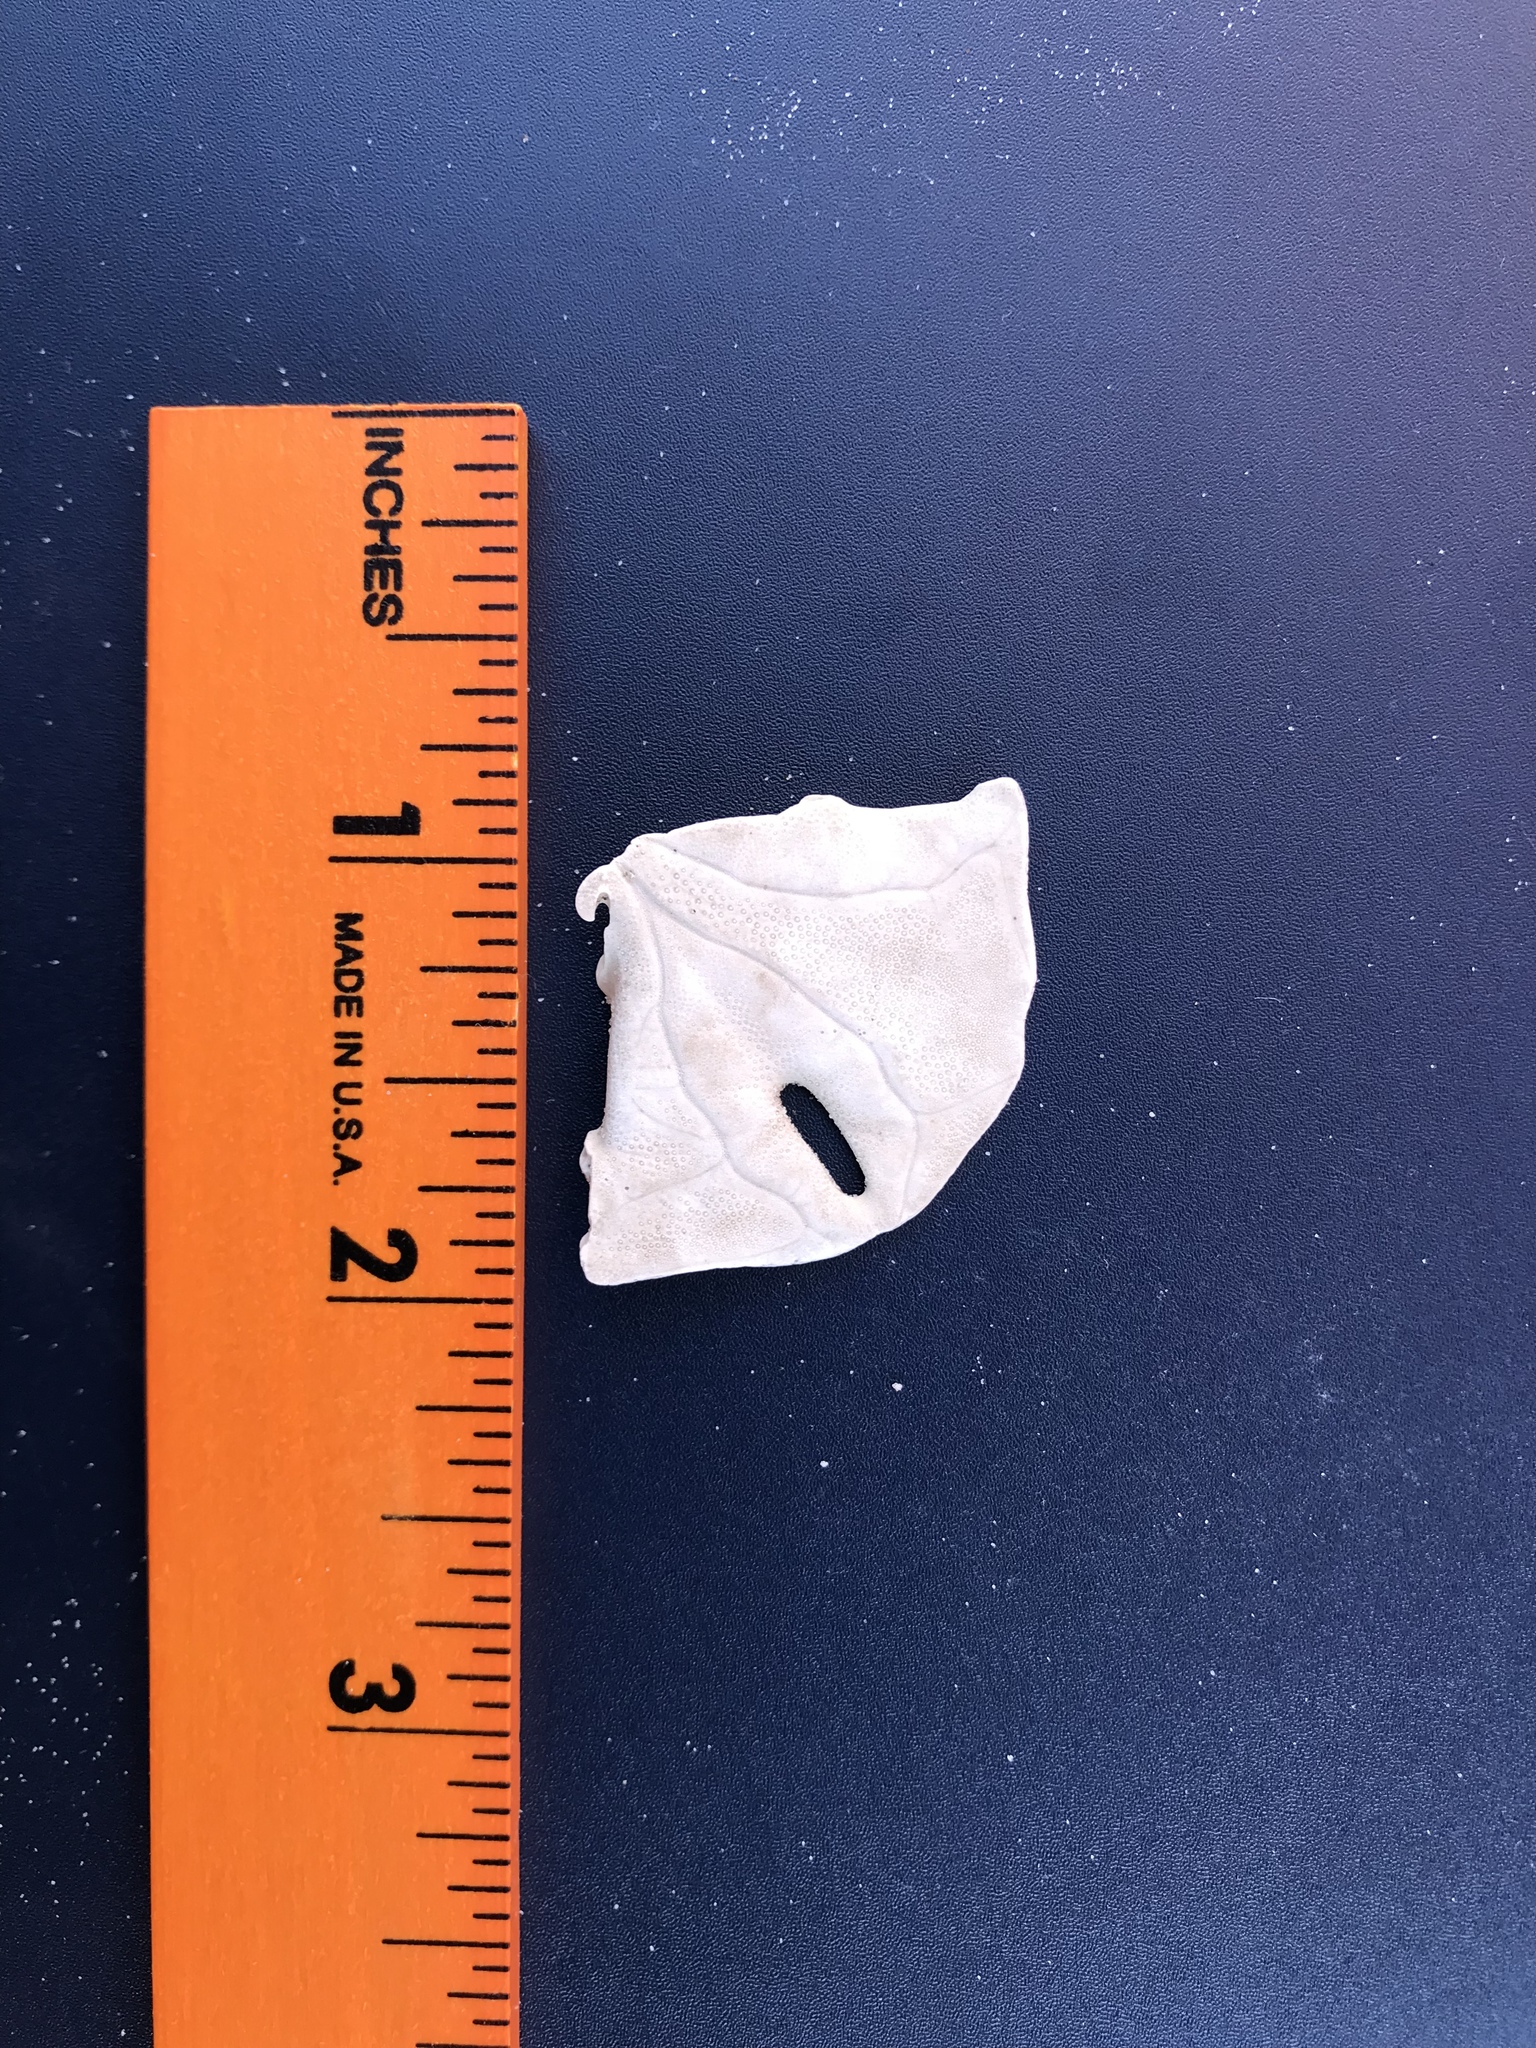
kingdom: Animalia
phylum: Echinodermata
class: Echinoidea
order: Echinolampadacea
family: Mellitidae
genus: Mellita
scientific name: Mellita quinquiesperforata
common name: Sand dollar
